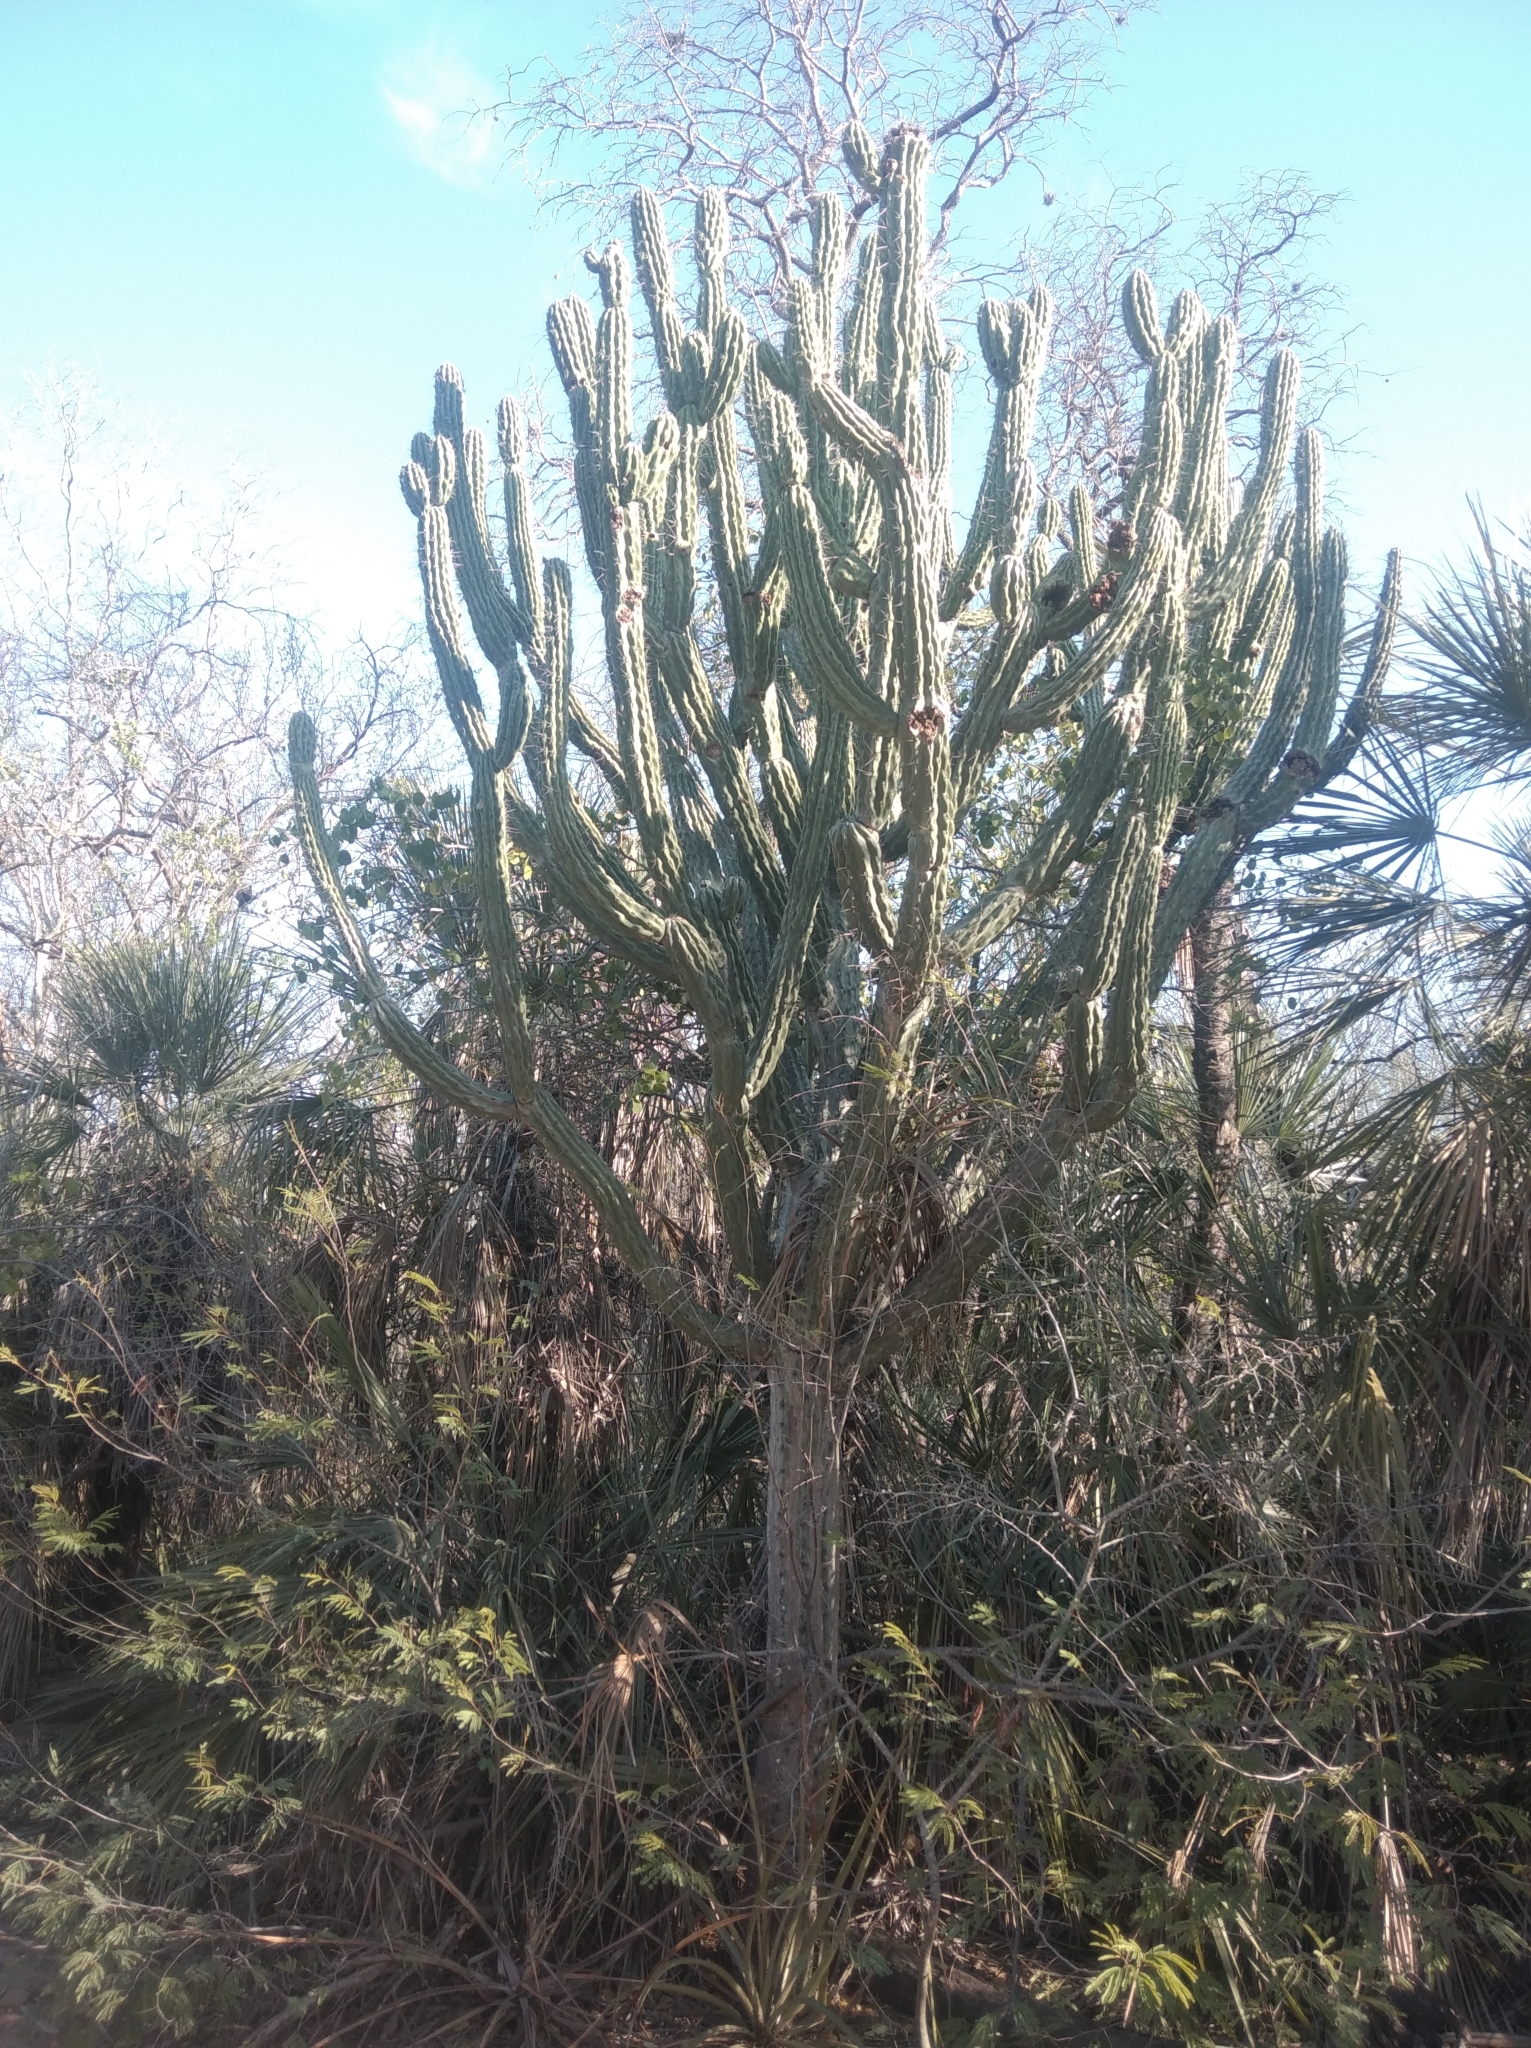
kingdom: Plantae
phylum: Tracheophyta
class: Magnoliopsida
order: Caryophyllales
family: Cactaceae
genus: Stetsonia
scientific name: Stetsonia coryne
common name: Toothpick cactus
